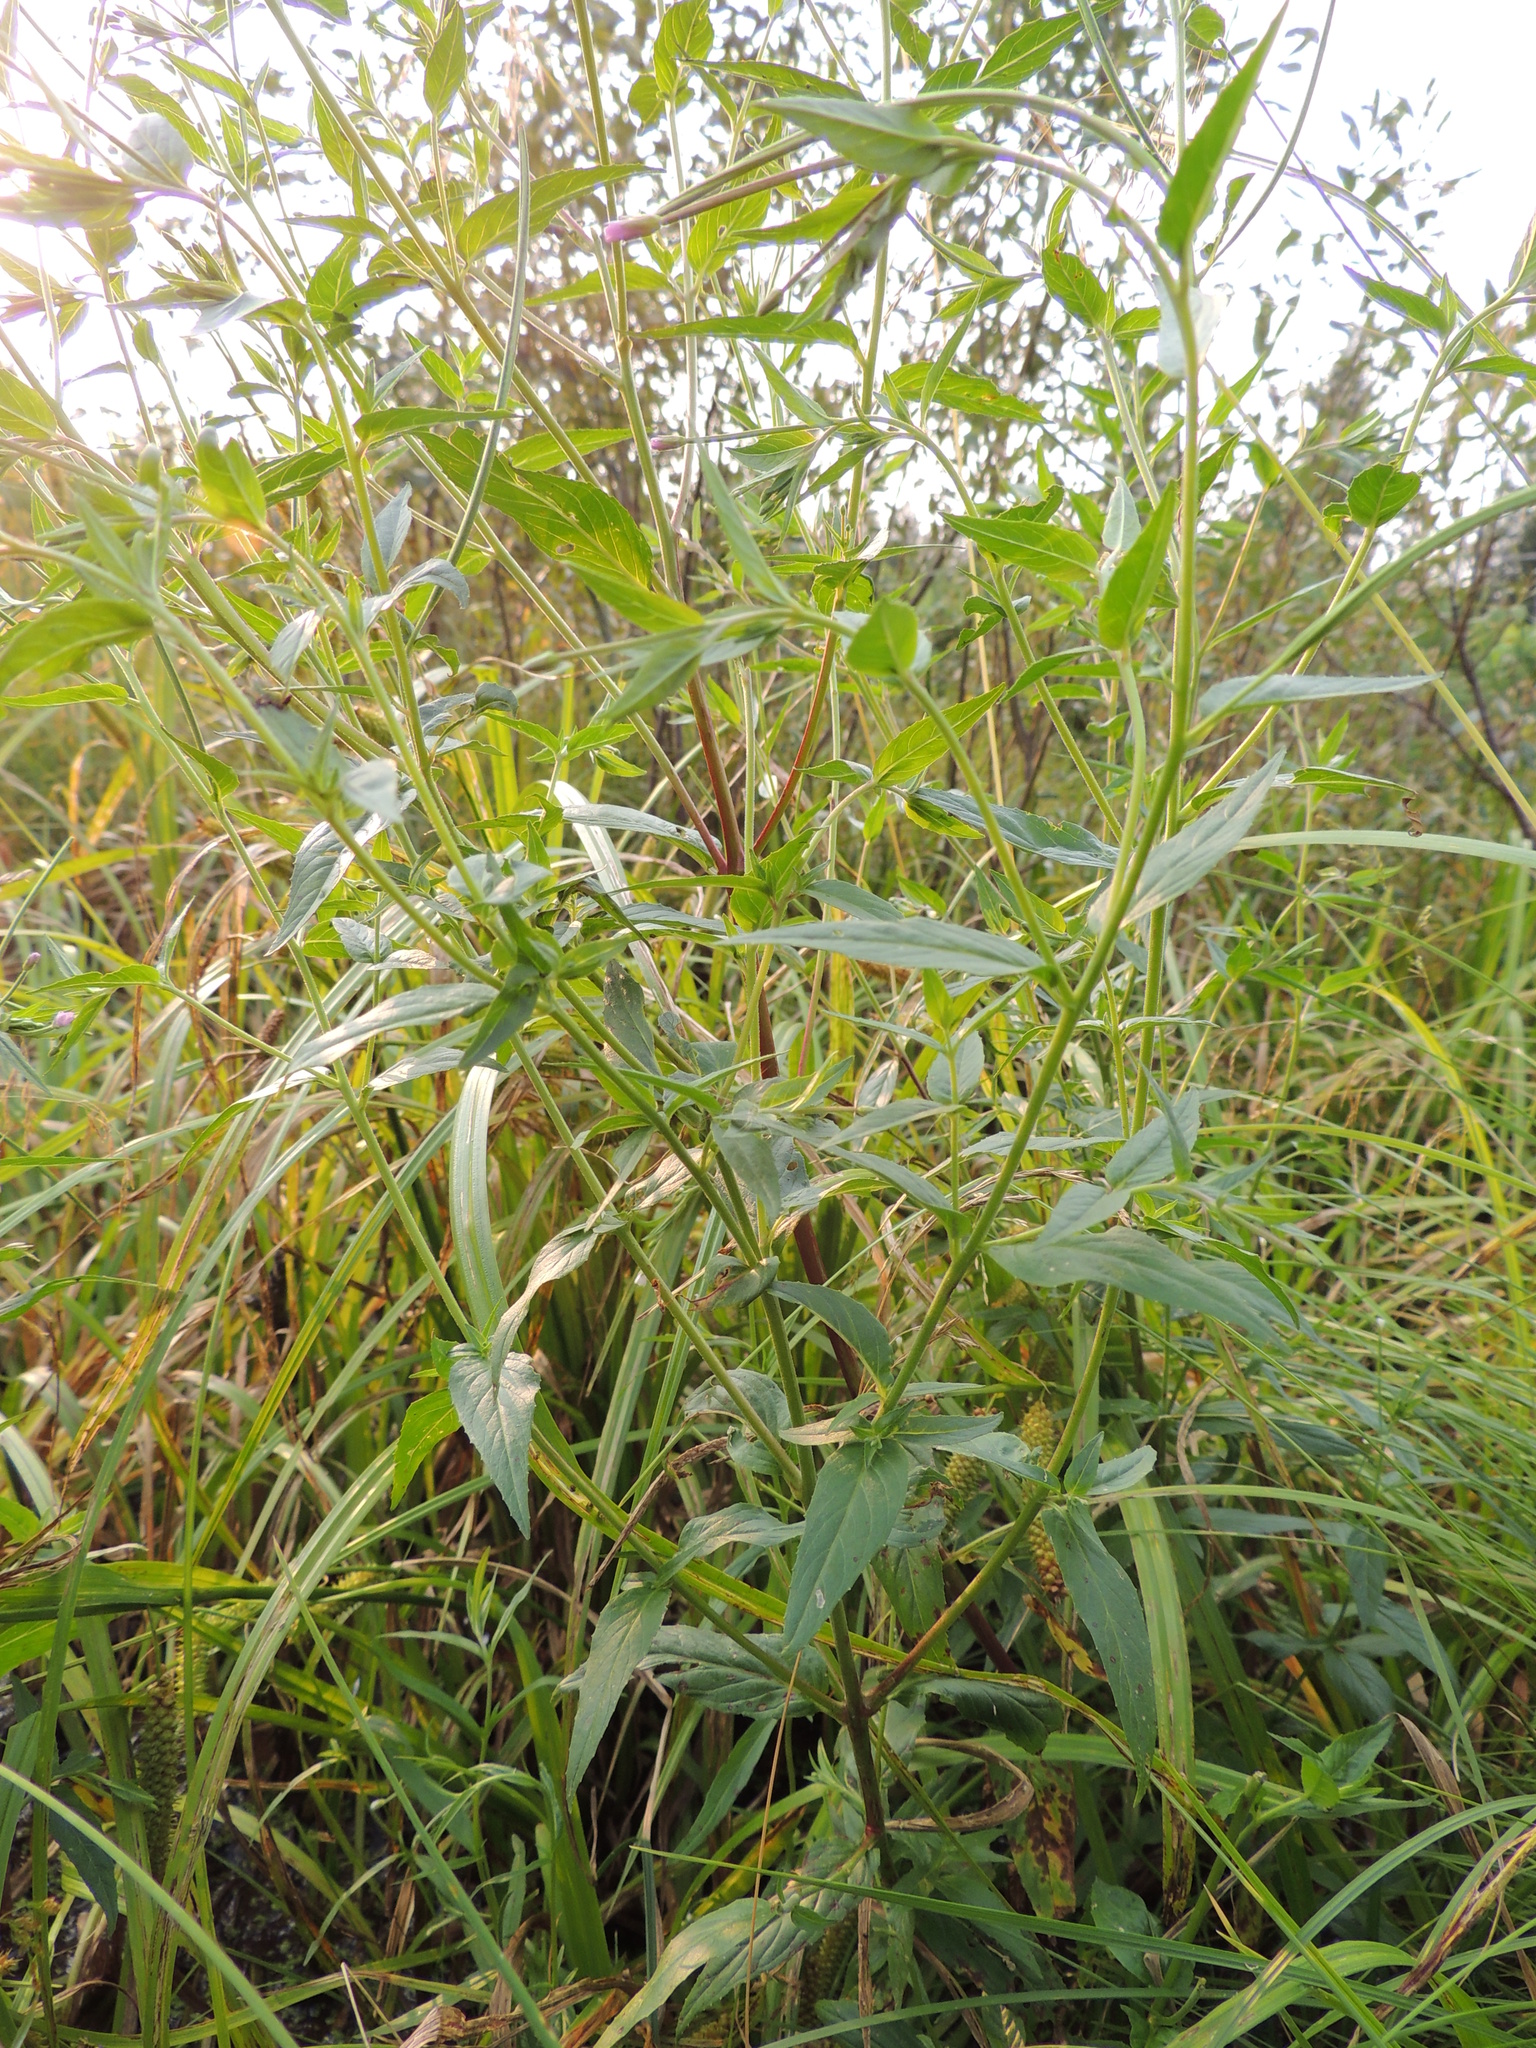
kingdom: Plantae
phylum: Tracheophyta
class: Magnoliopsida
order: Myrtales
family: Onagraceae
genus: Epilobium
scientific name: Epilobium ciliatum
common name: American willowherb
